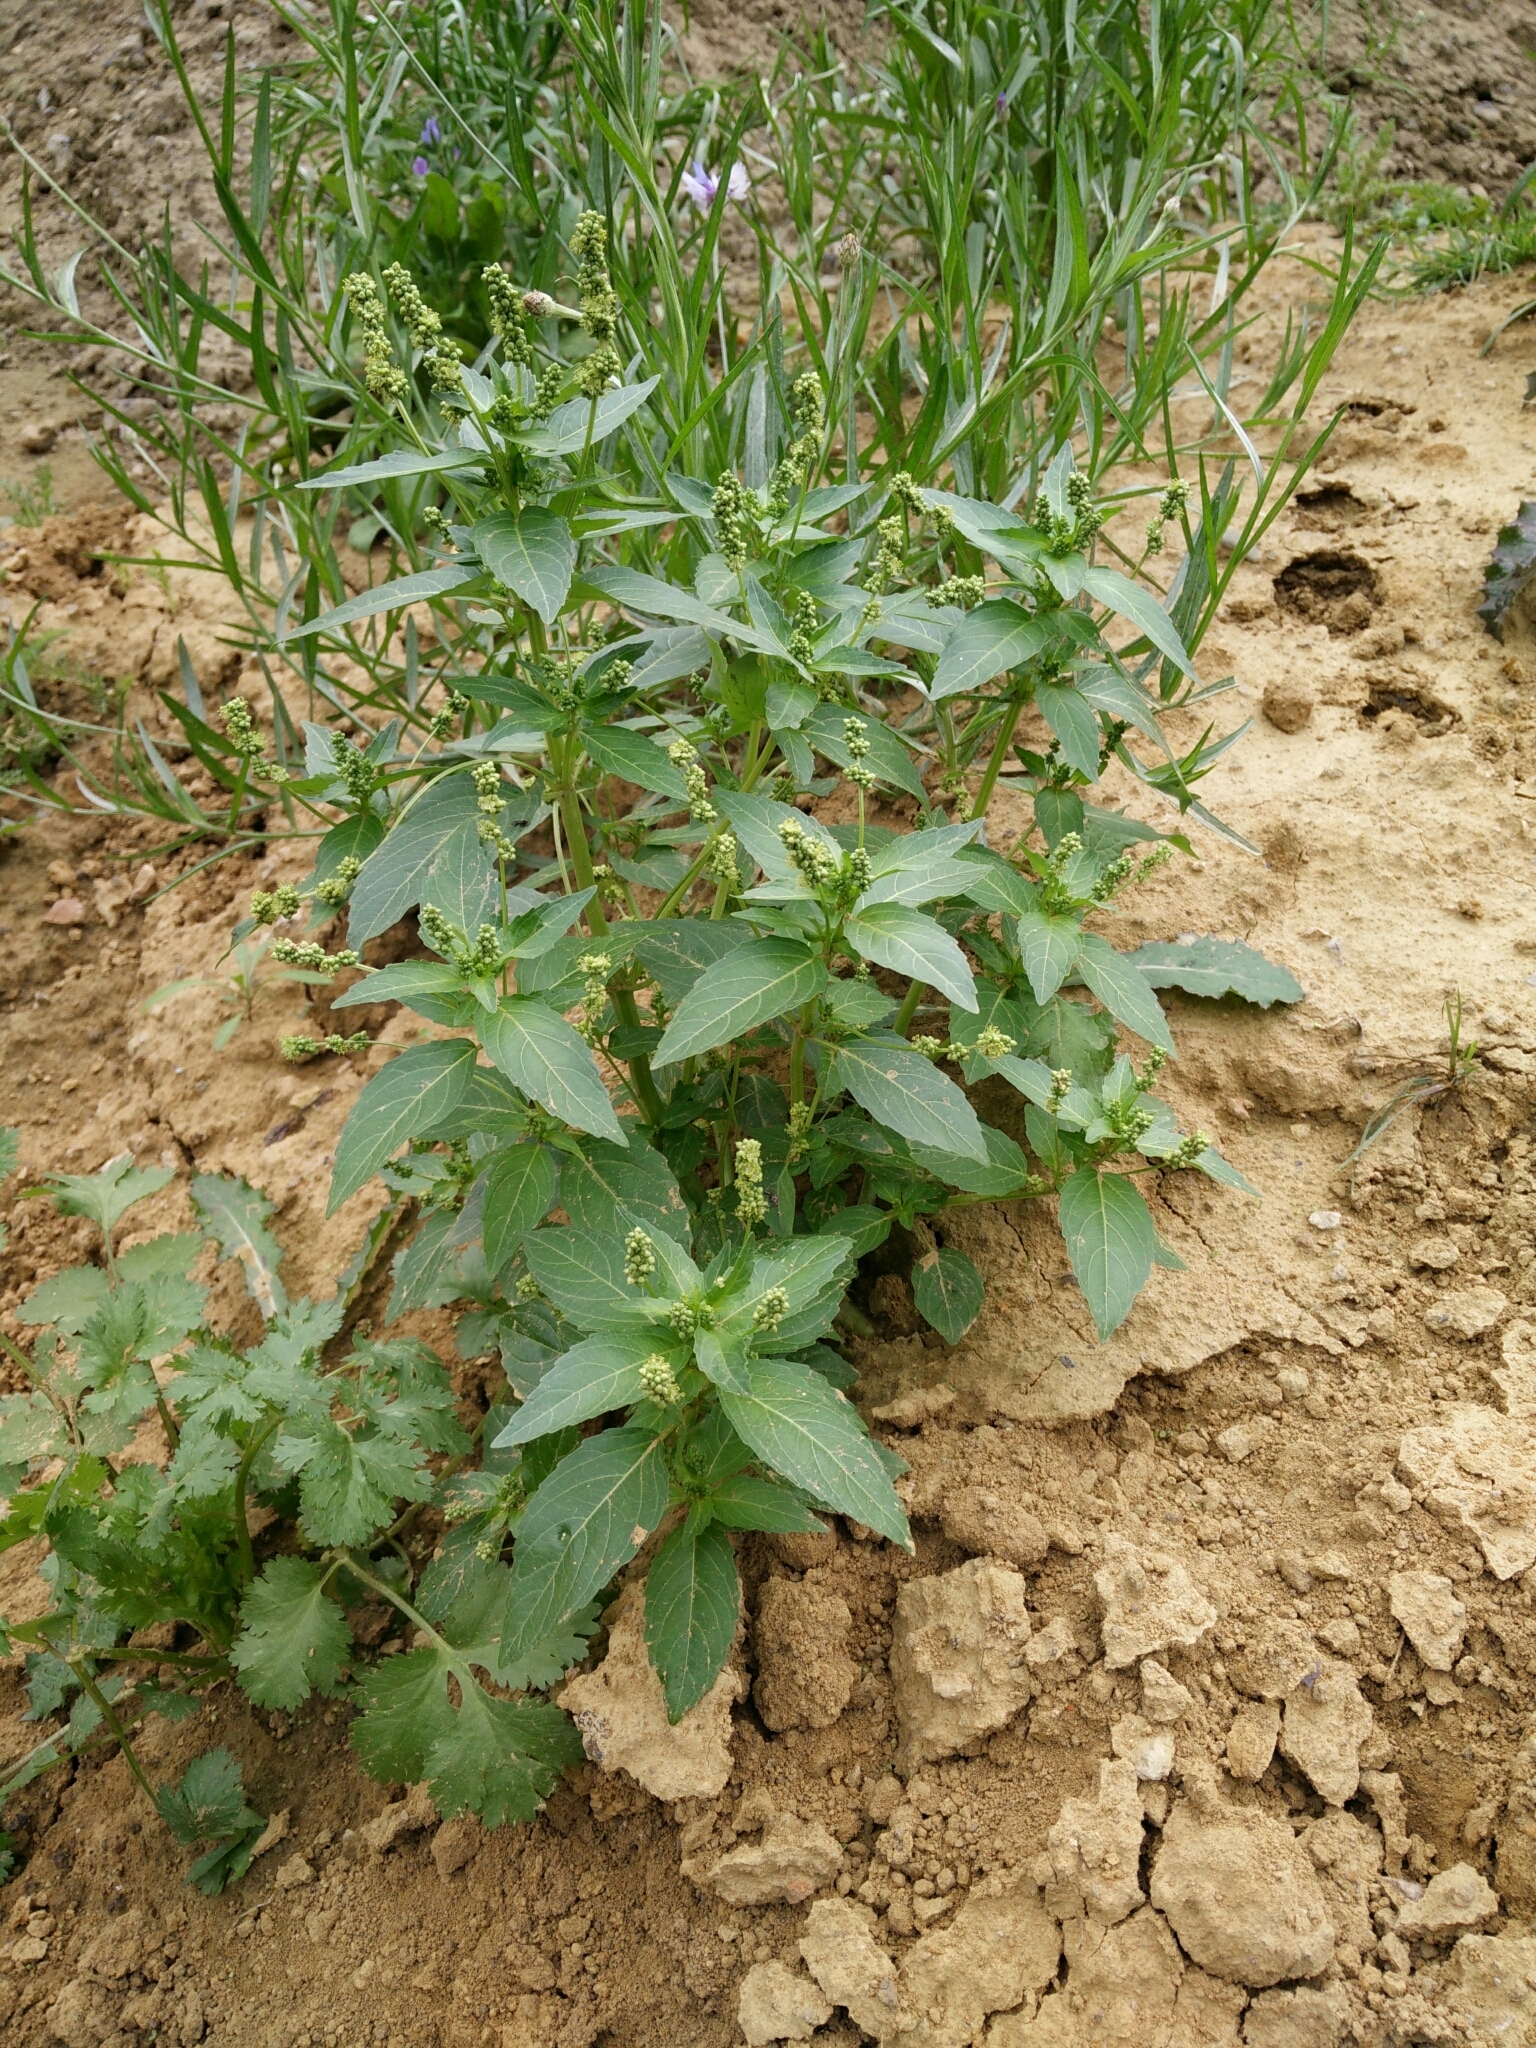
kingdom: Plantae
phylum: Tracheophyta
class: Magnoliopsida
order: Malpighiales
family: Euphorbiaceae
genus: Mercurialis
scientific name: Mercurialis annua
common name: Annual mercury
